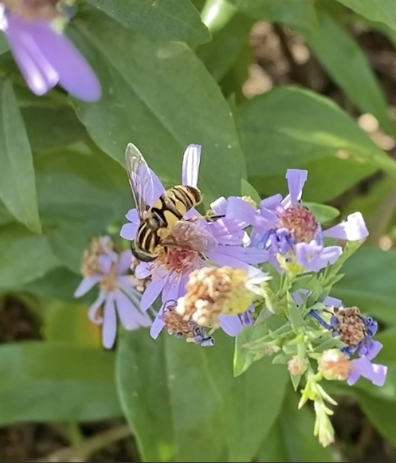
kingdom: Animalia
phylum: Arthropoda
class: Insecta
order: Diptera
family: Syrphidae
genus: Helophilus
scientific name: Helophilus fasciatus
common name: Narrow-headed marsh fly
